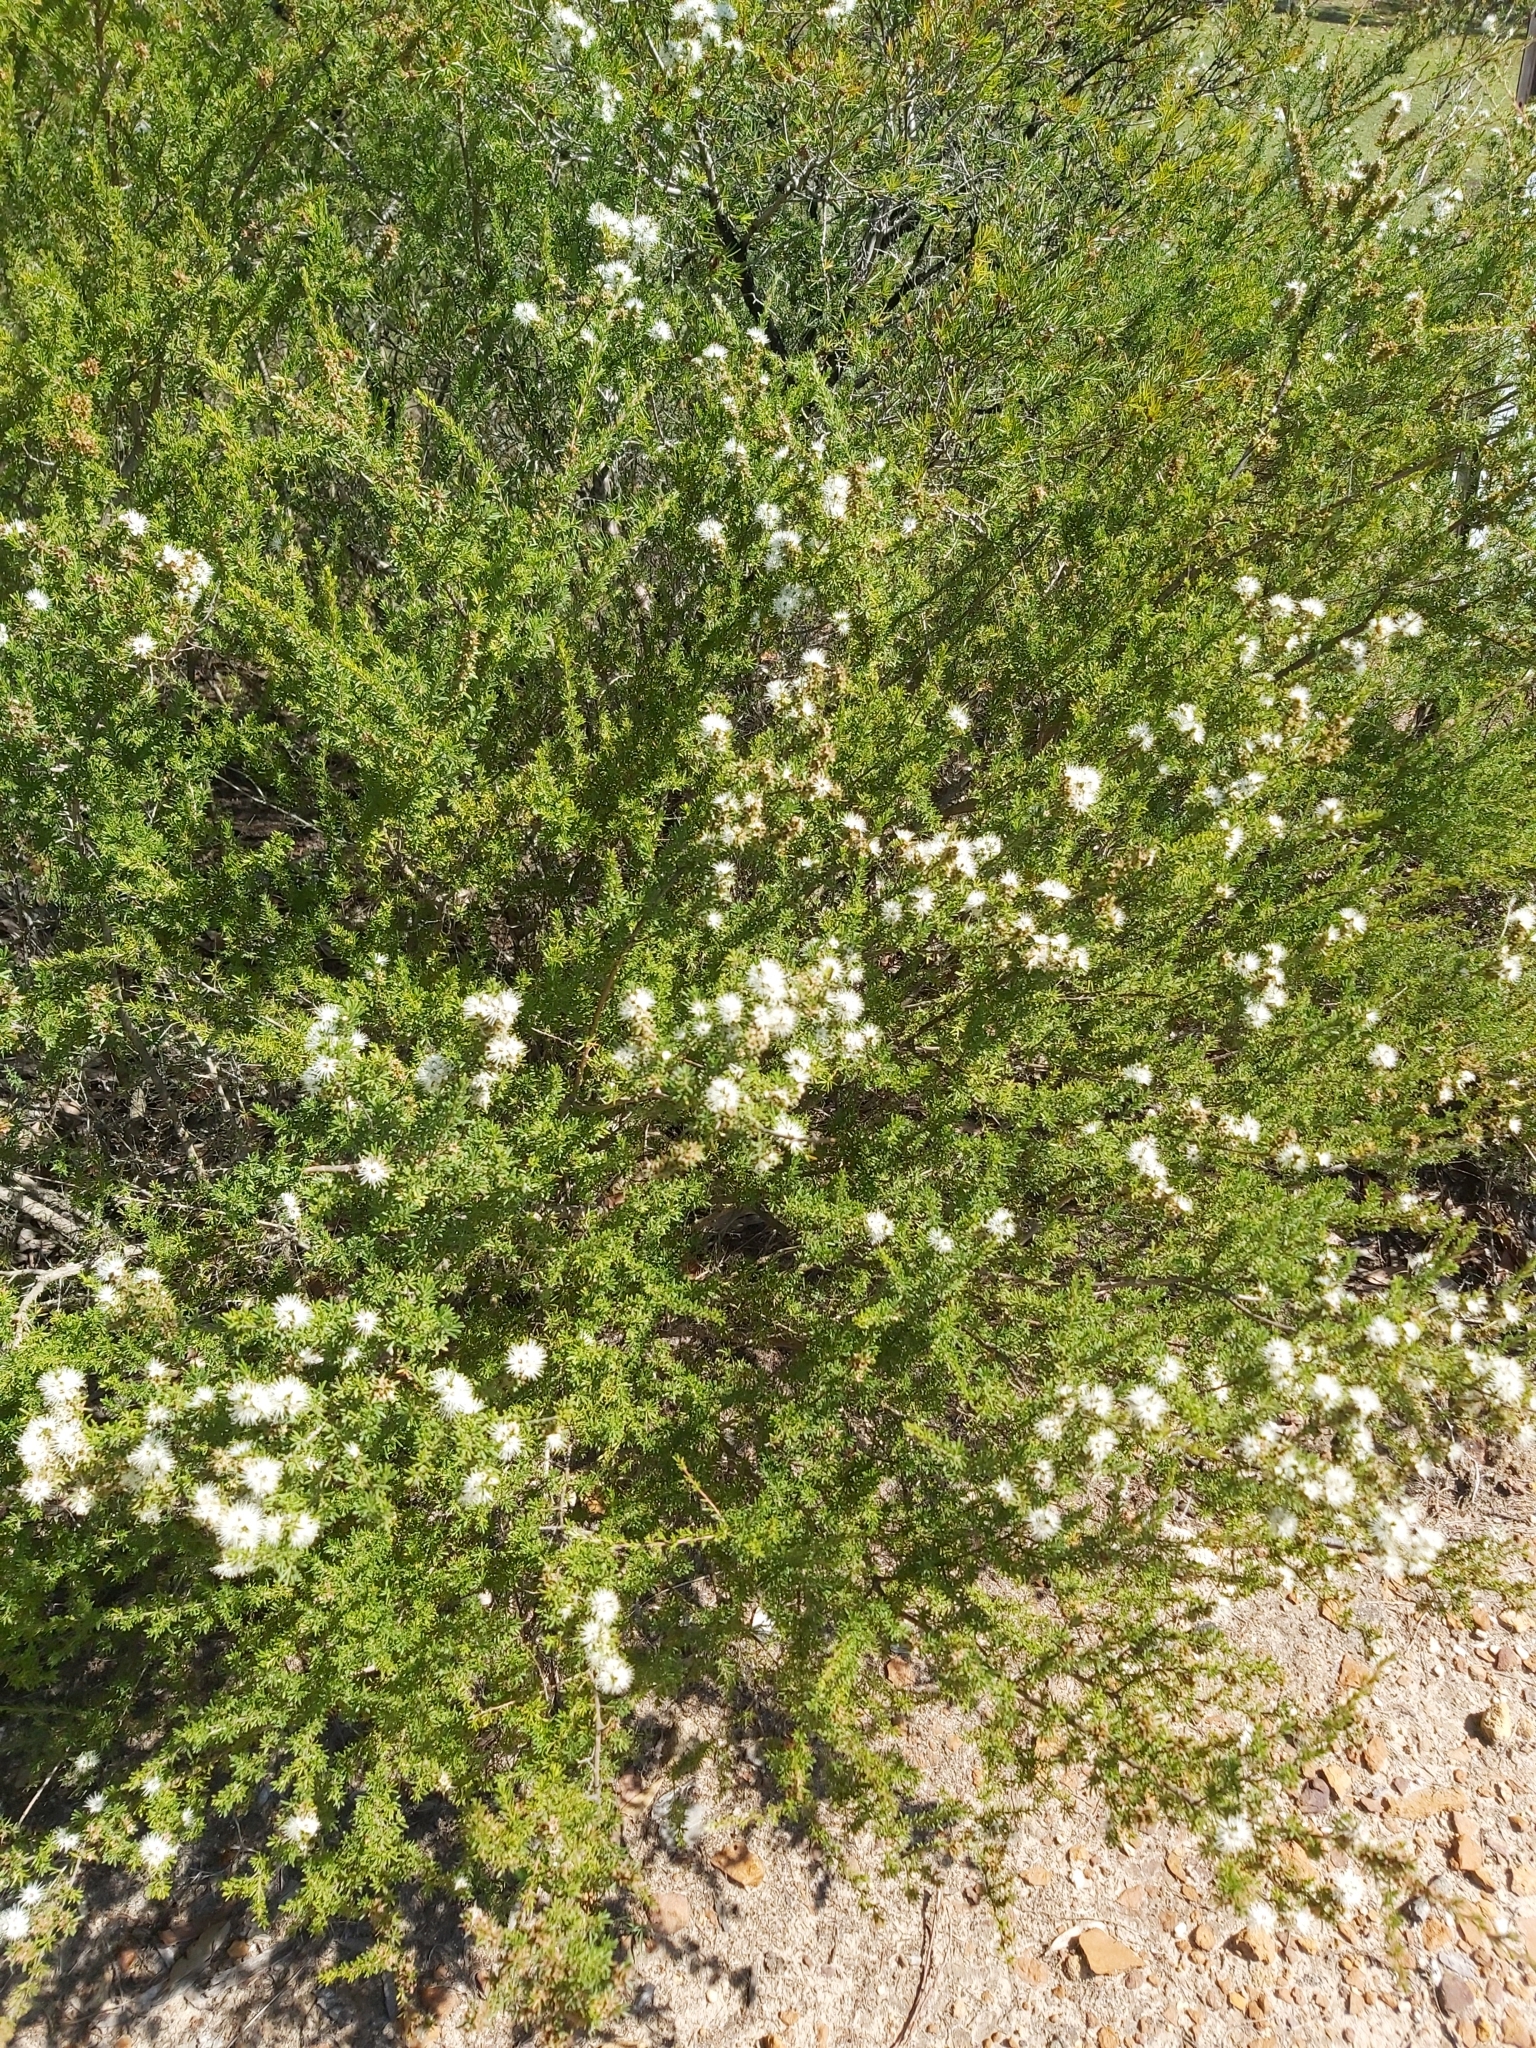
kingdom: Plantae
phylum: Tracheophyta
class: Magnoliopsida
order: Myrtales
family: Myrtaceae
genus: Kunzea
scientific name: Kunzea ambigua
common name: Tickbush
